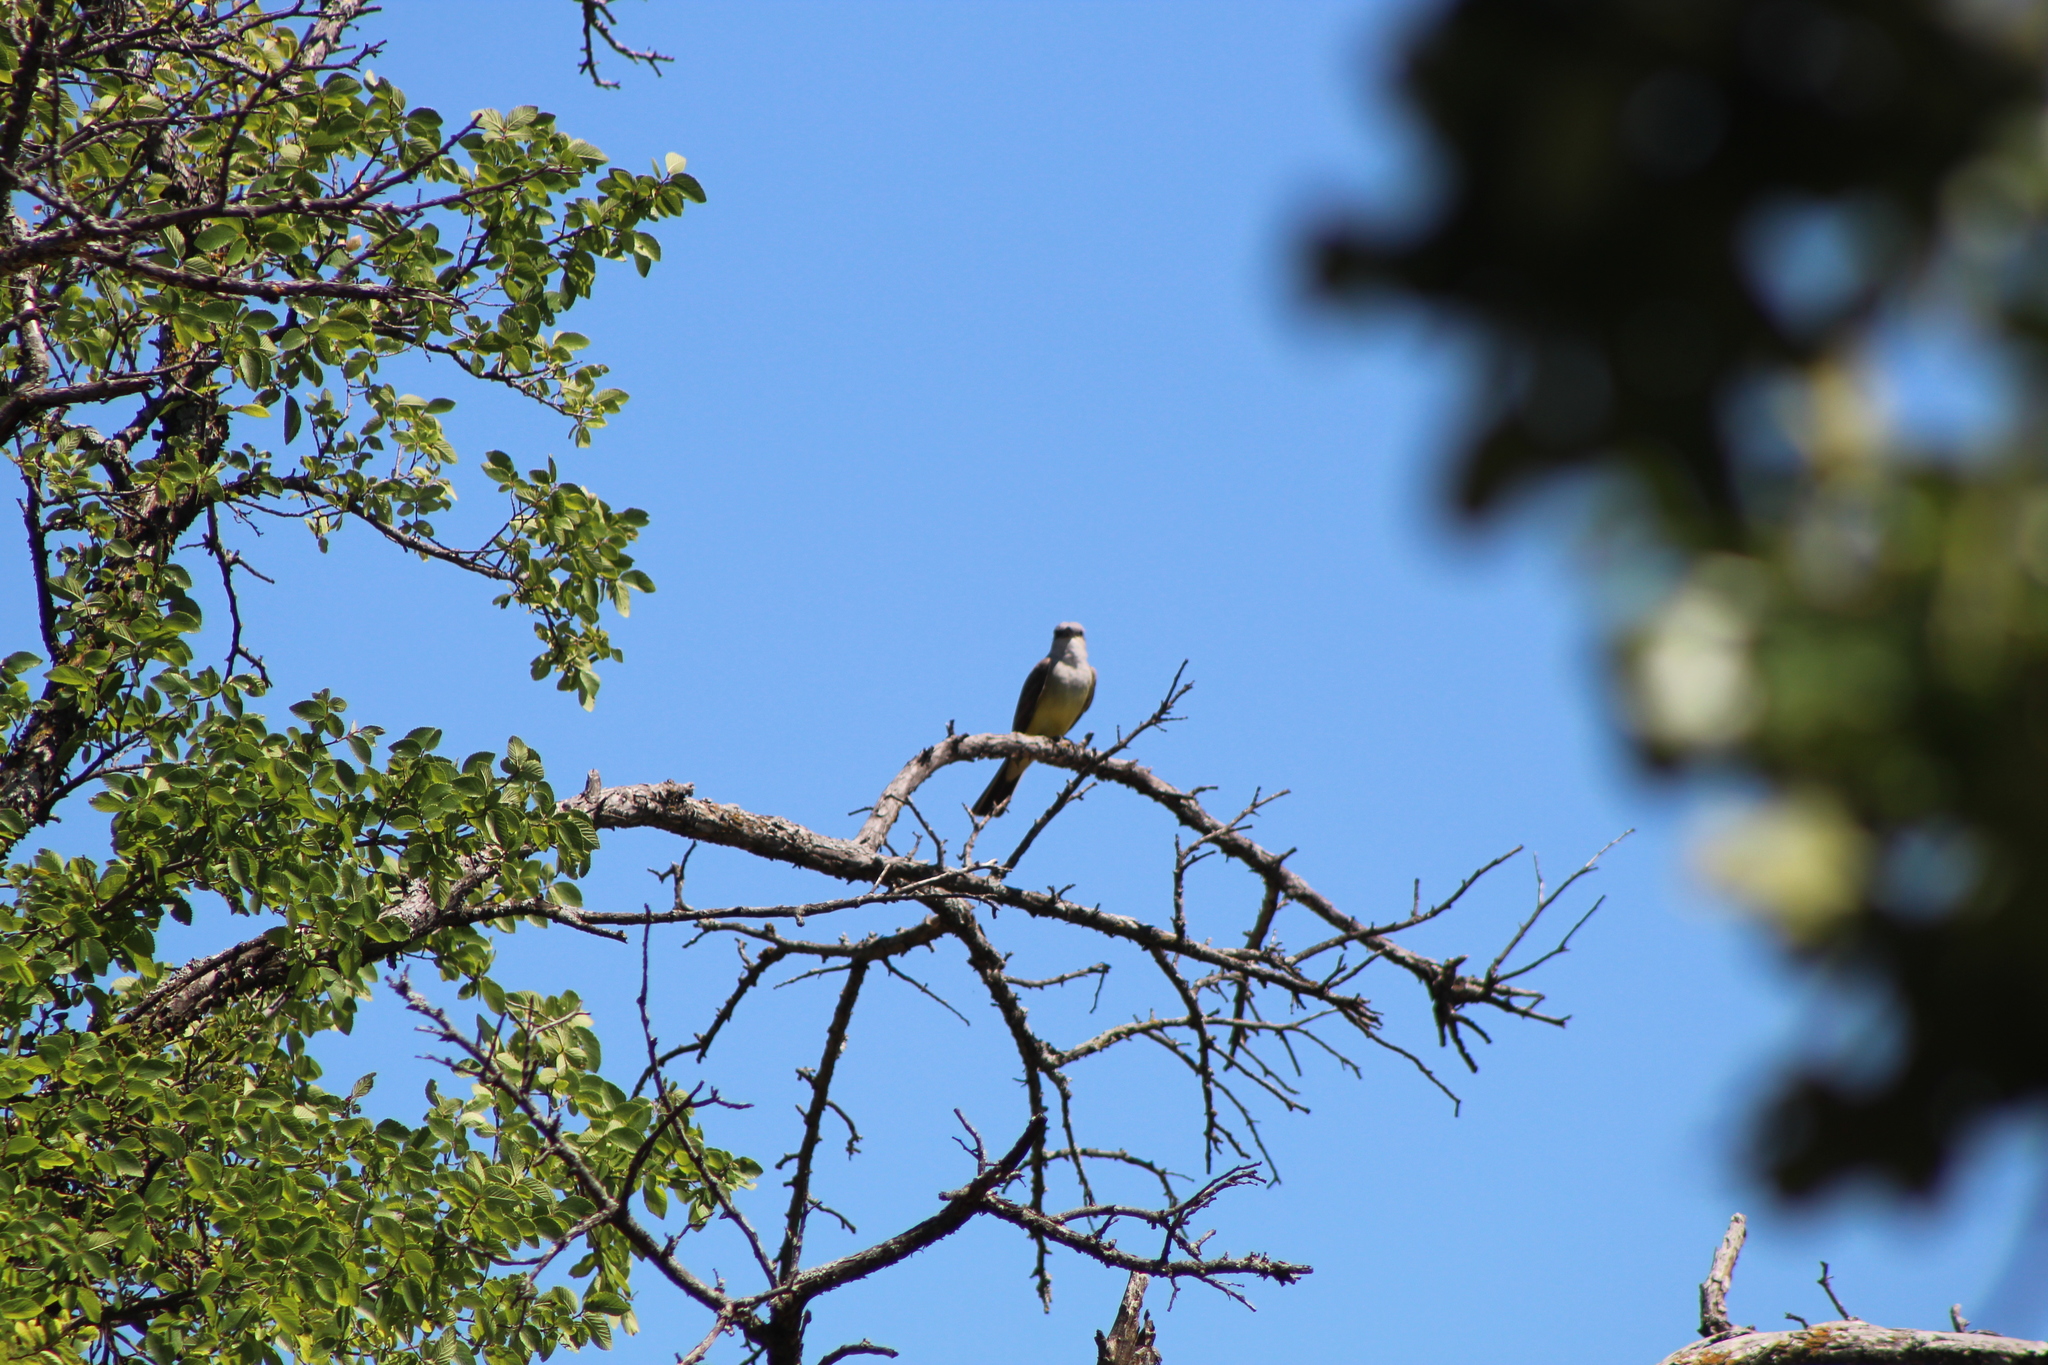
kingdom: Animalia
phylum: Chordata
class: Aves
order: Passeriformes
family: Tyrannidae
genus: Tyrannus
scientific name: Tyrannus verticalis
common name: Western kingbird
